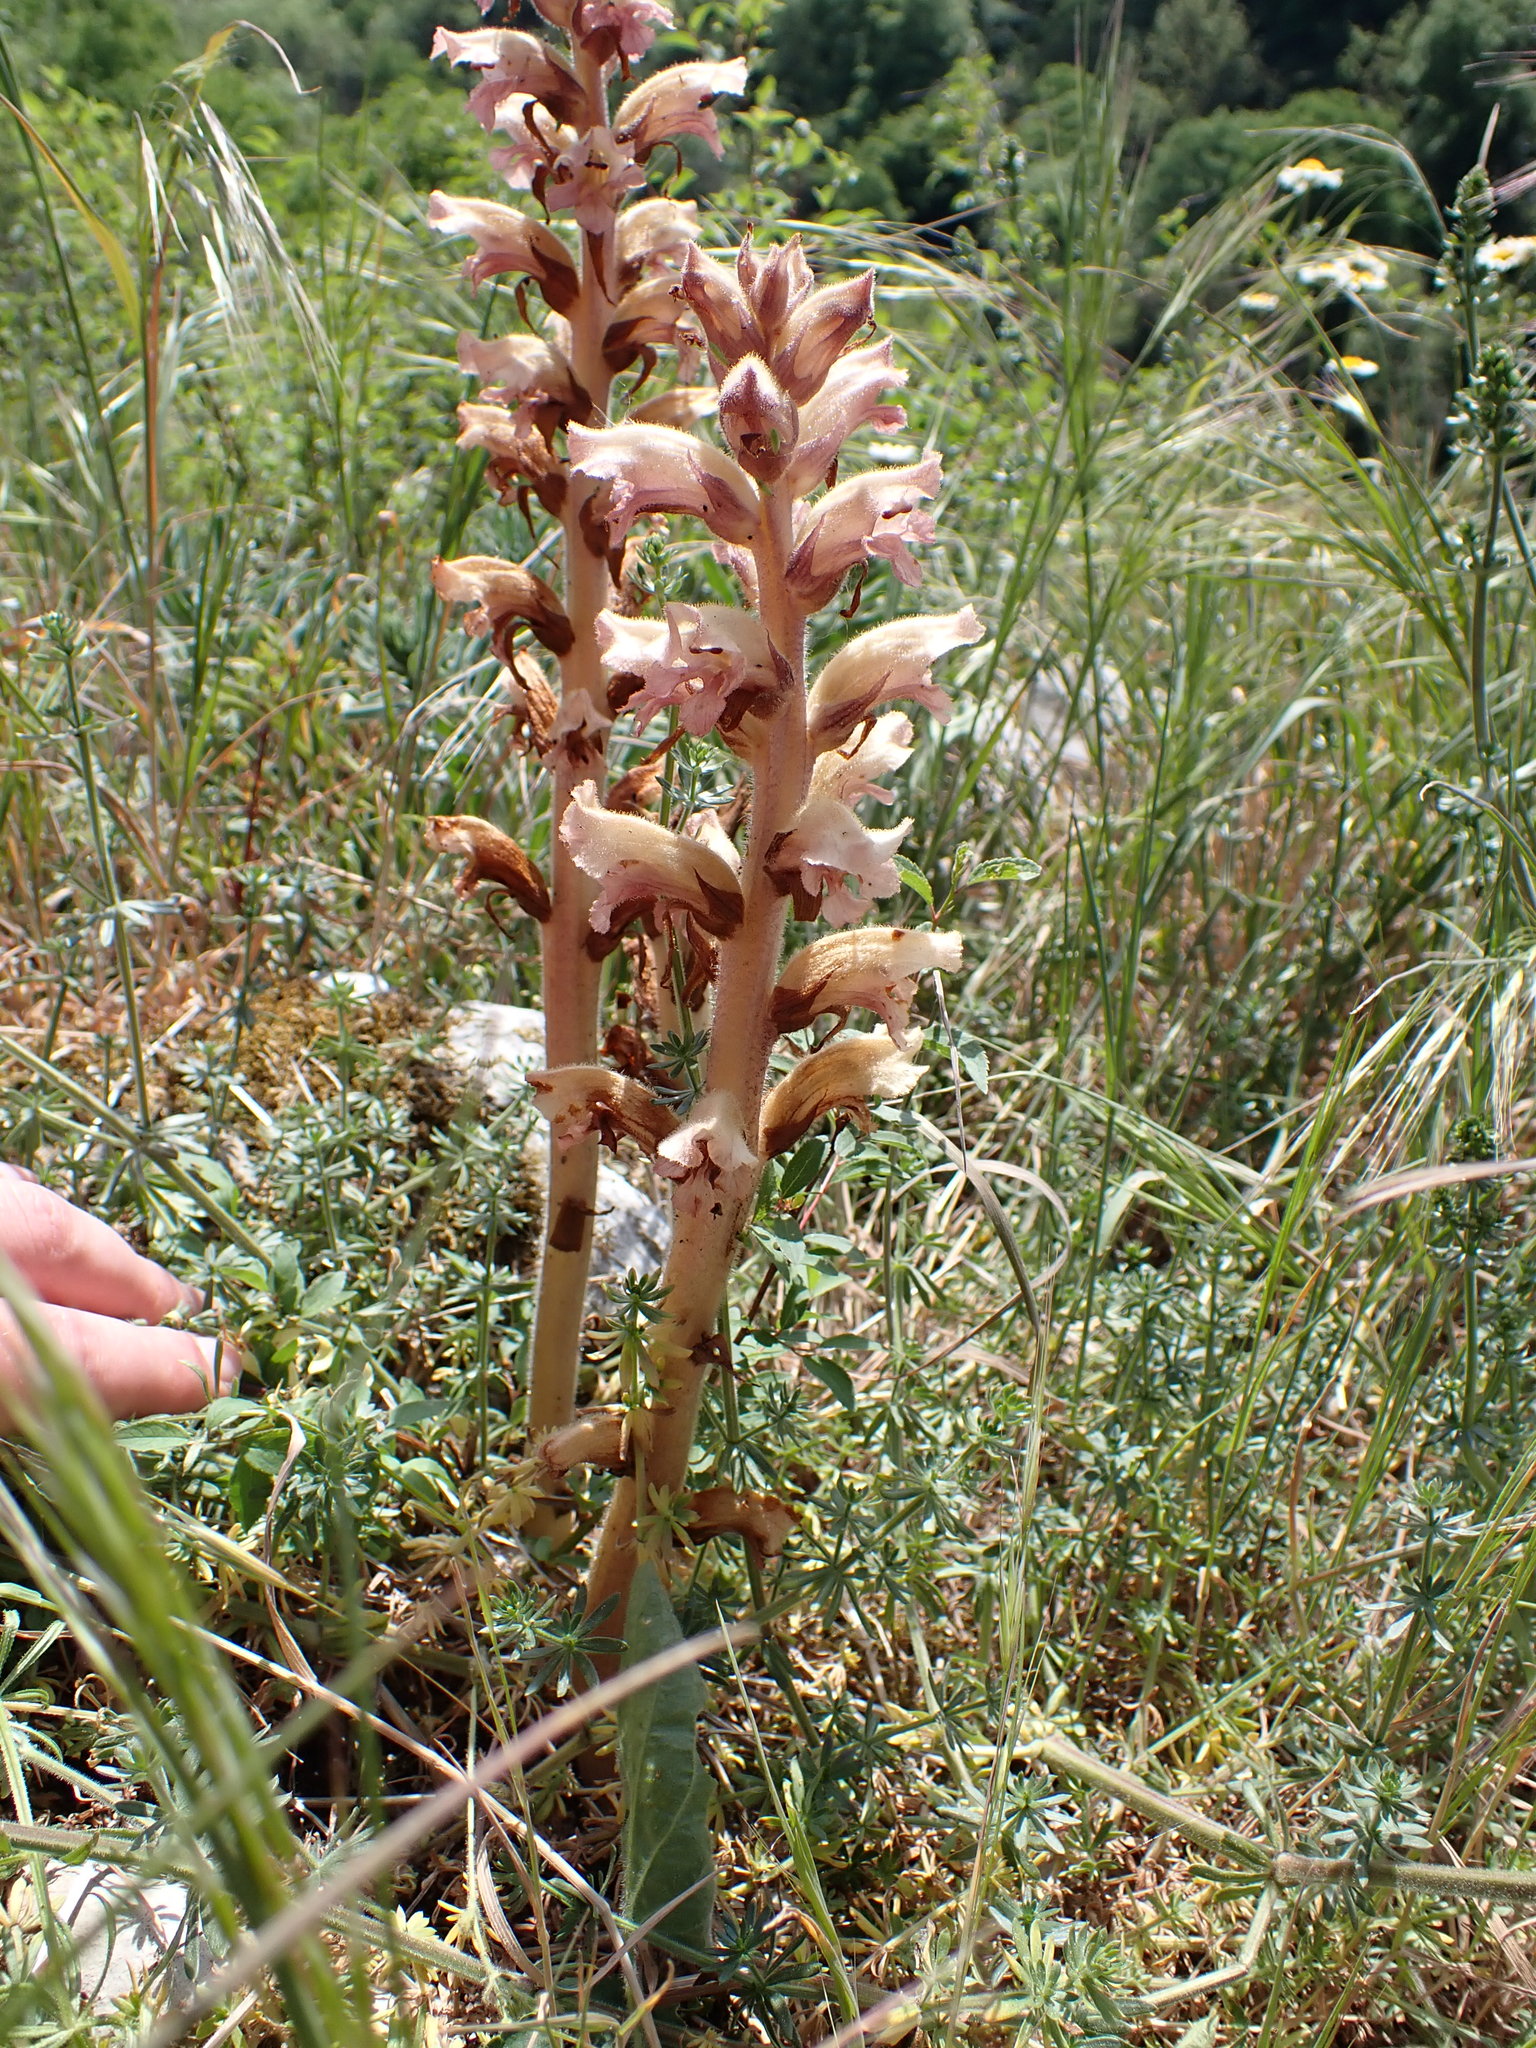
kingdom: Plantae
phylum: Tracheophyta
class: Magnoliopsida
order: Lamiales
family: Orobanchaceae
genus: Orobanche
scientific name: Orobanche caryophyllacea
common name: Bedstraw broomrape
